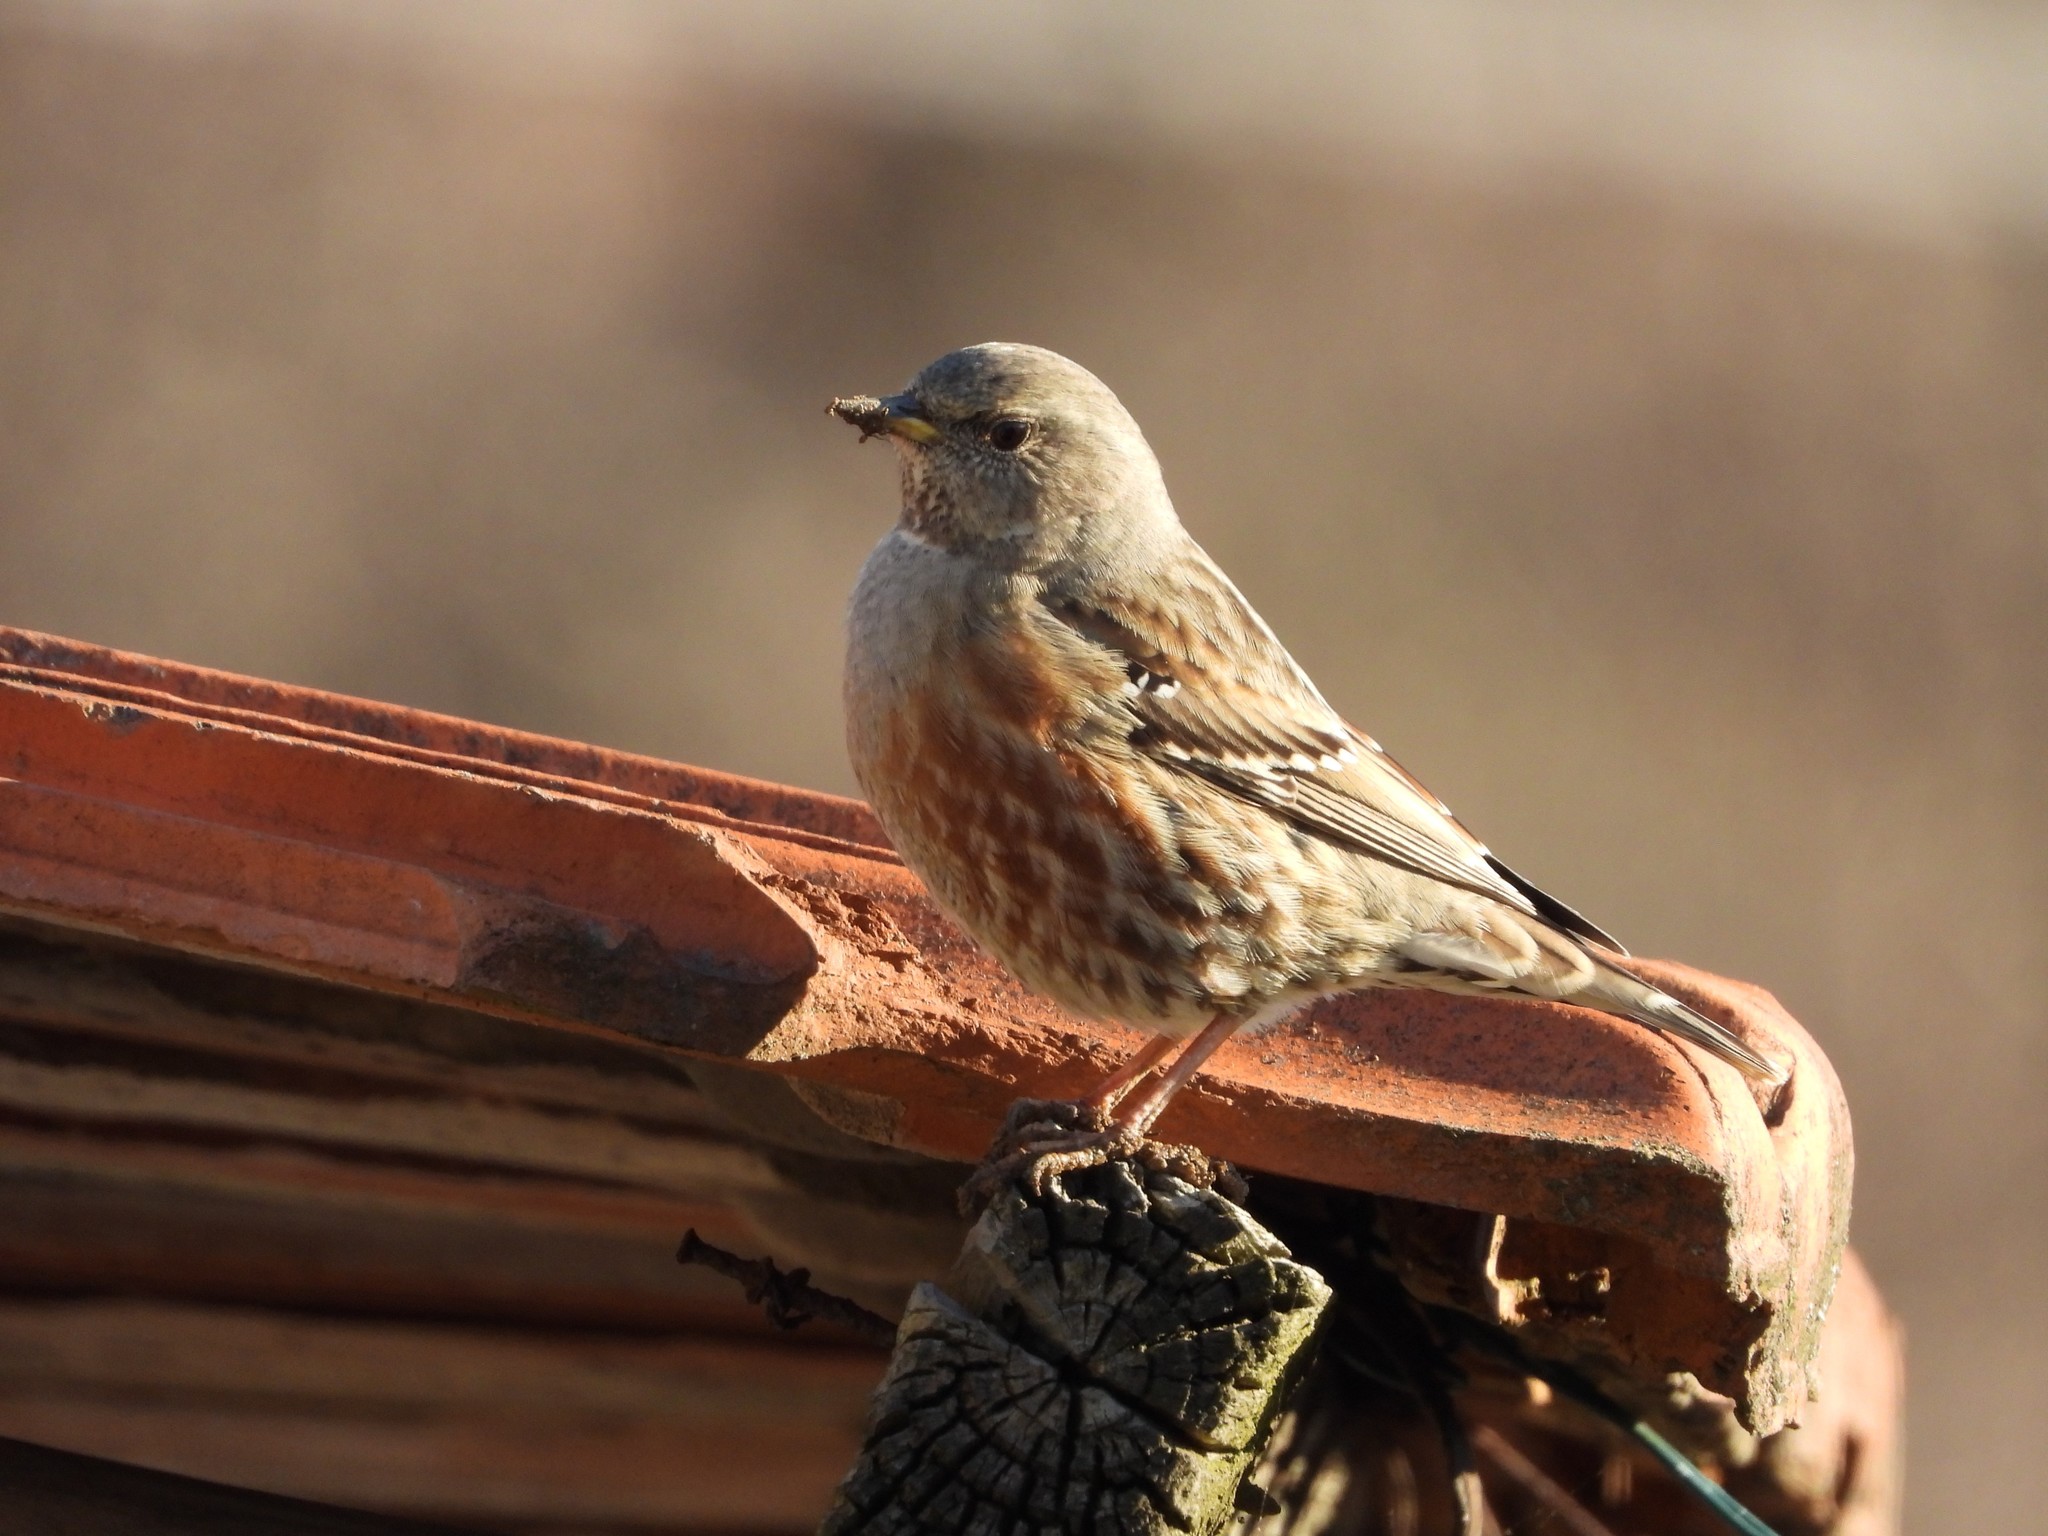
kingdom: Animalia
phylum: Chordata
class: Aves
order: Passeriformes
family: Prunellidae
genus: Prunella
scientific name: Prunella collaris
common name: Alpine accentor
